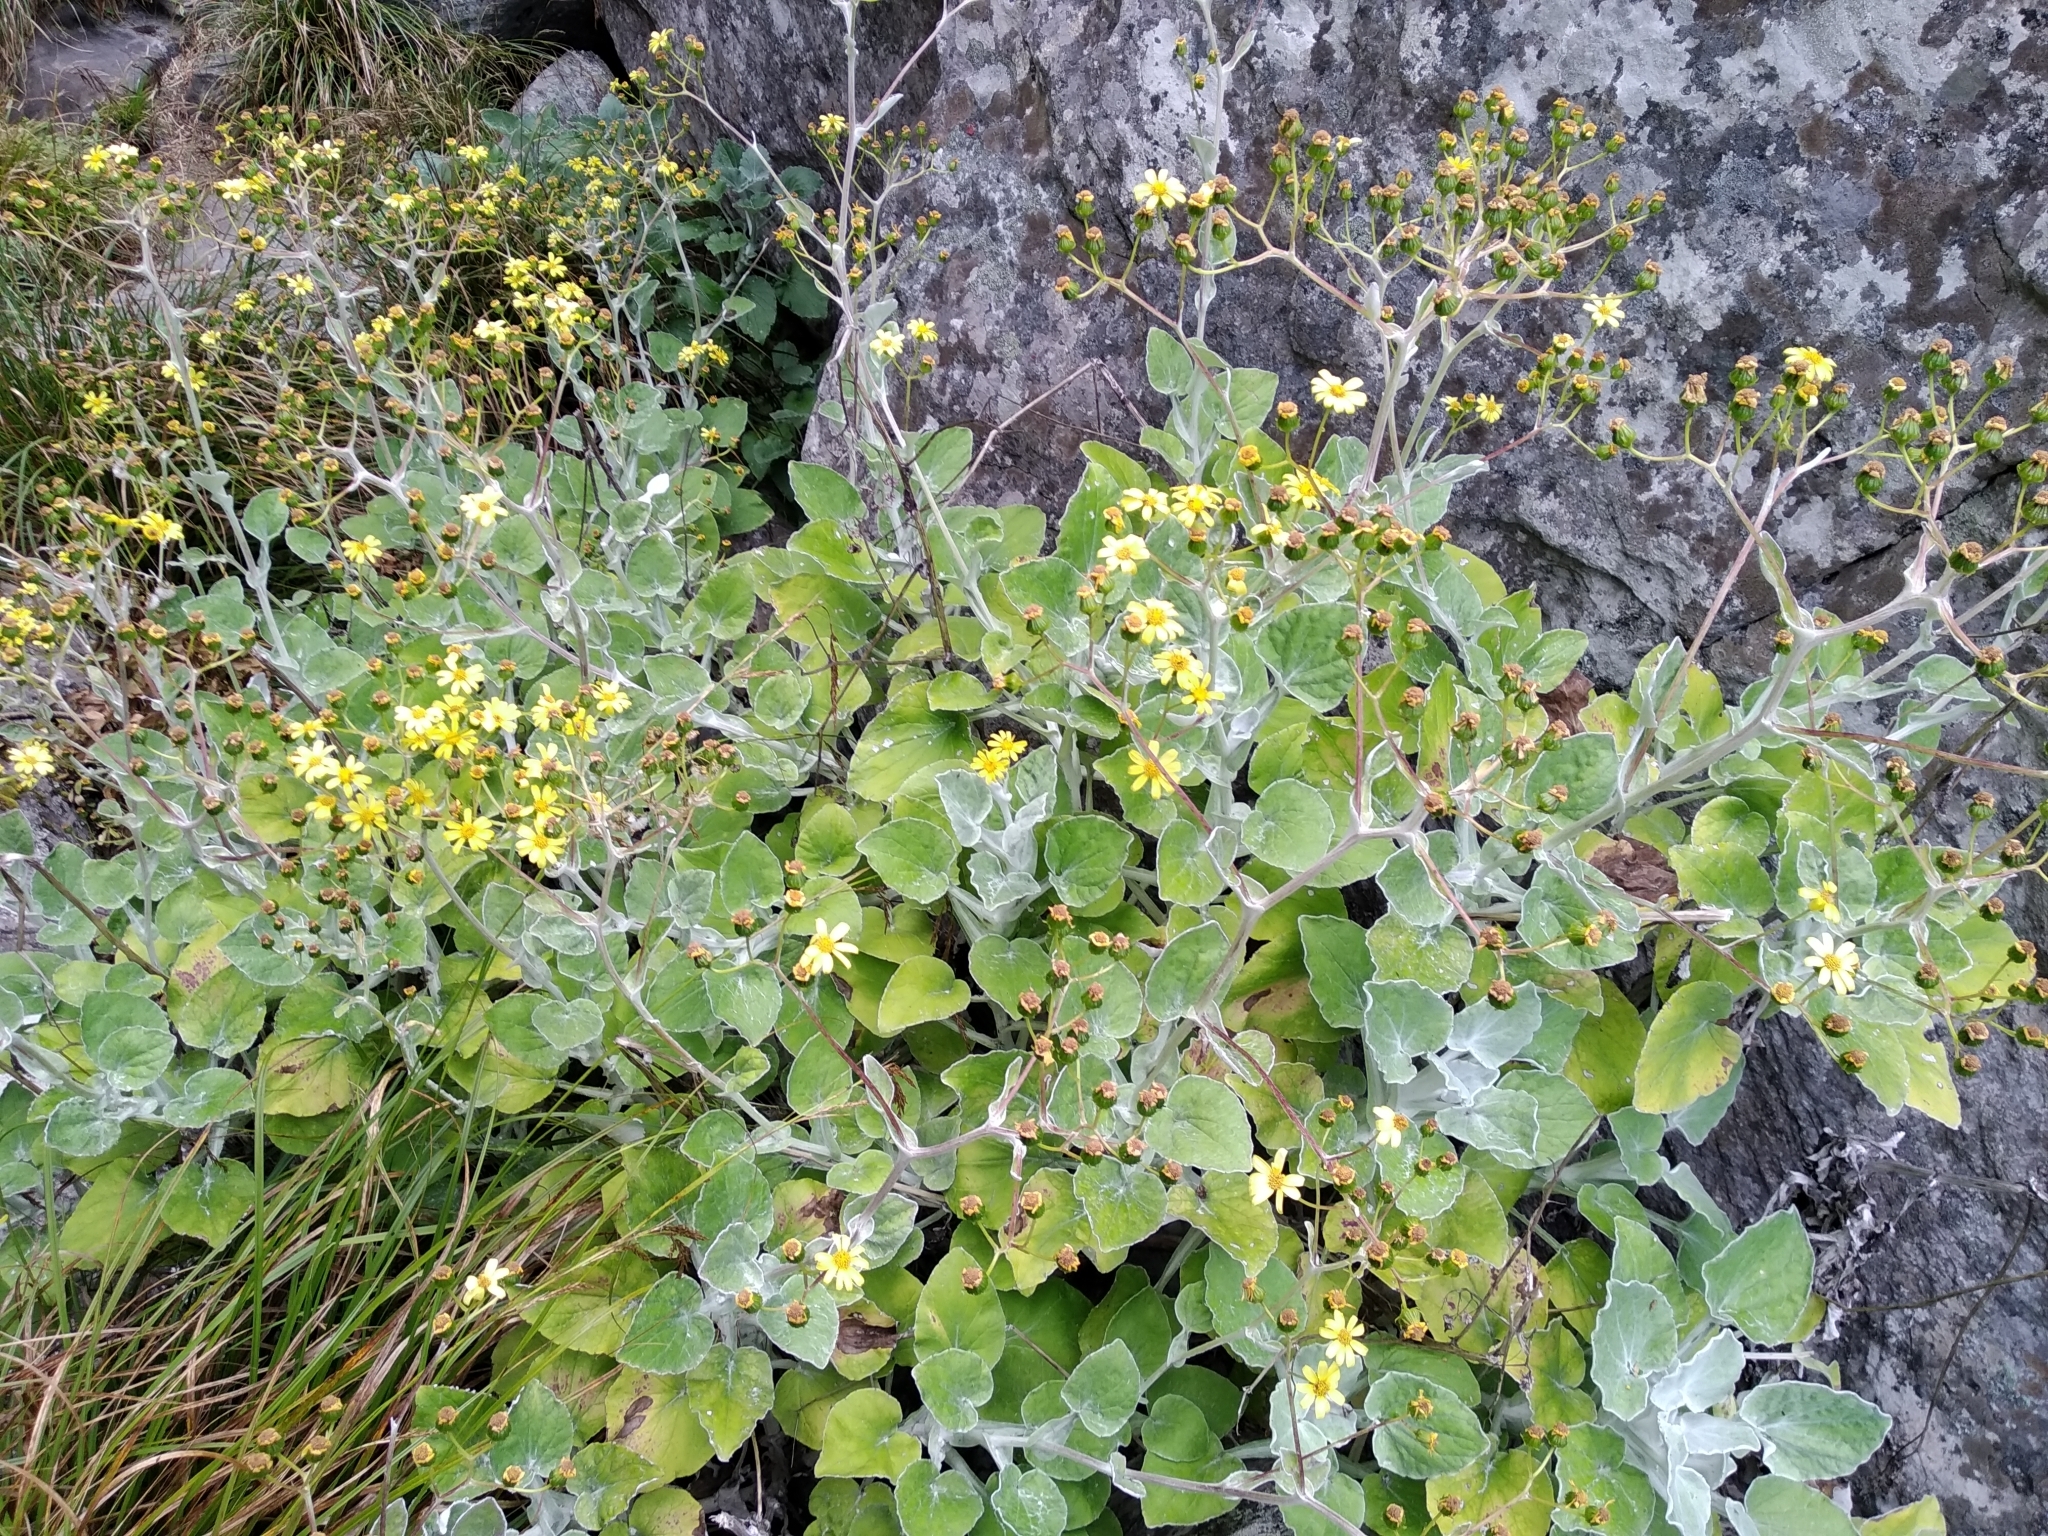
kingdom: Plantae
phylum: Tracheophyta
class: Magnoliopsida
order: Asterales
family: Asteraceae
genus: Senecio
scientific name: Senecio verbascifolius
